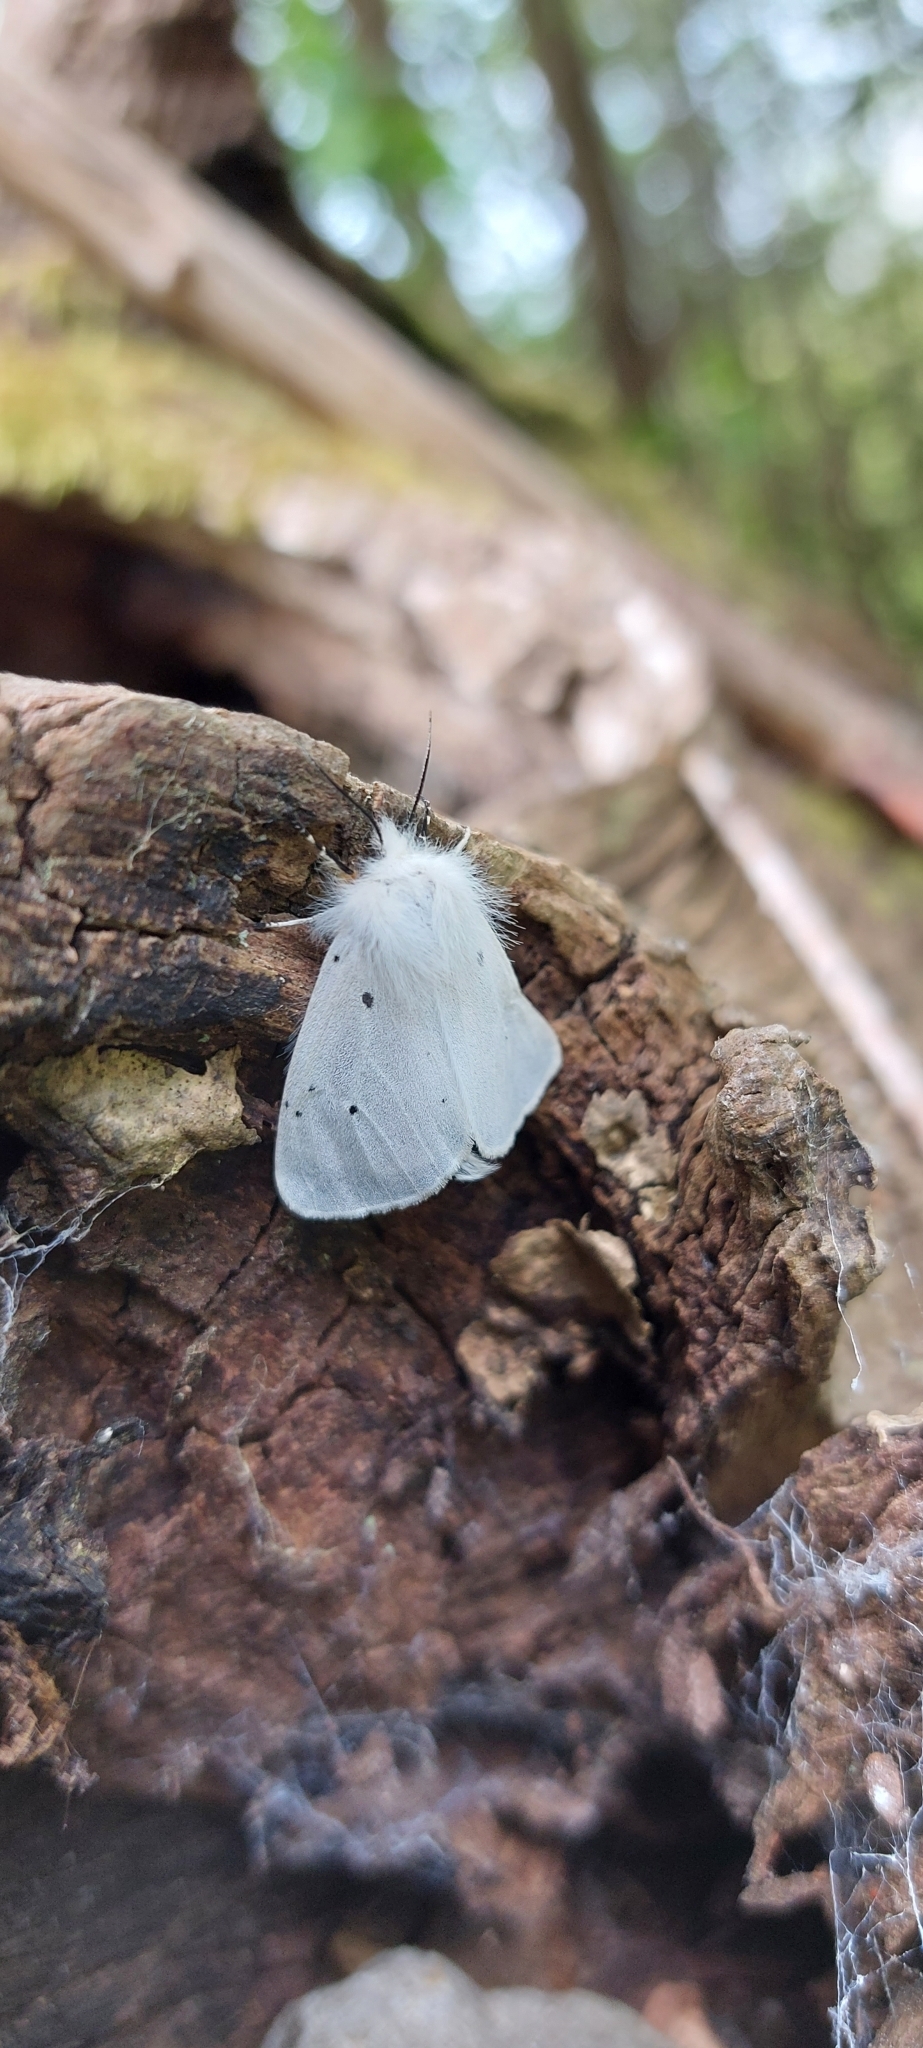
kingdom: Animalia
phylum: Arthropoda
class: Insecta
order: Lepidoptera
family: Erebidae
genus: Diaphora
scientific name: Diaphora mendica
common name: Muslin moth
